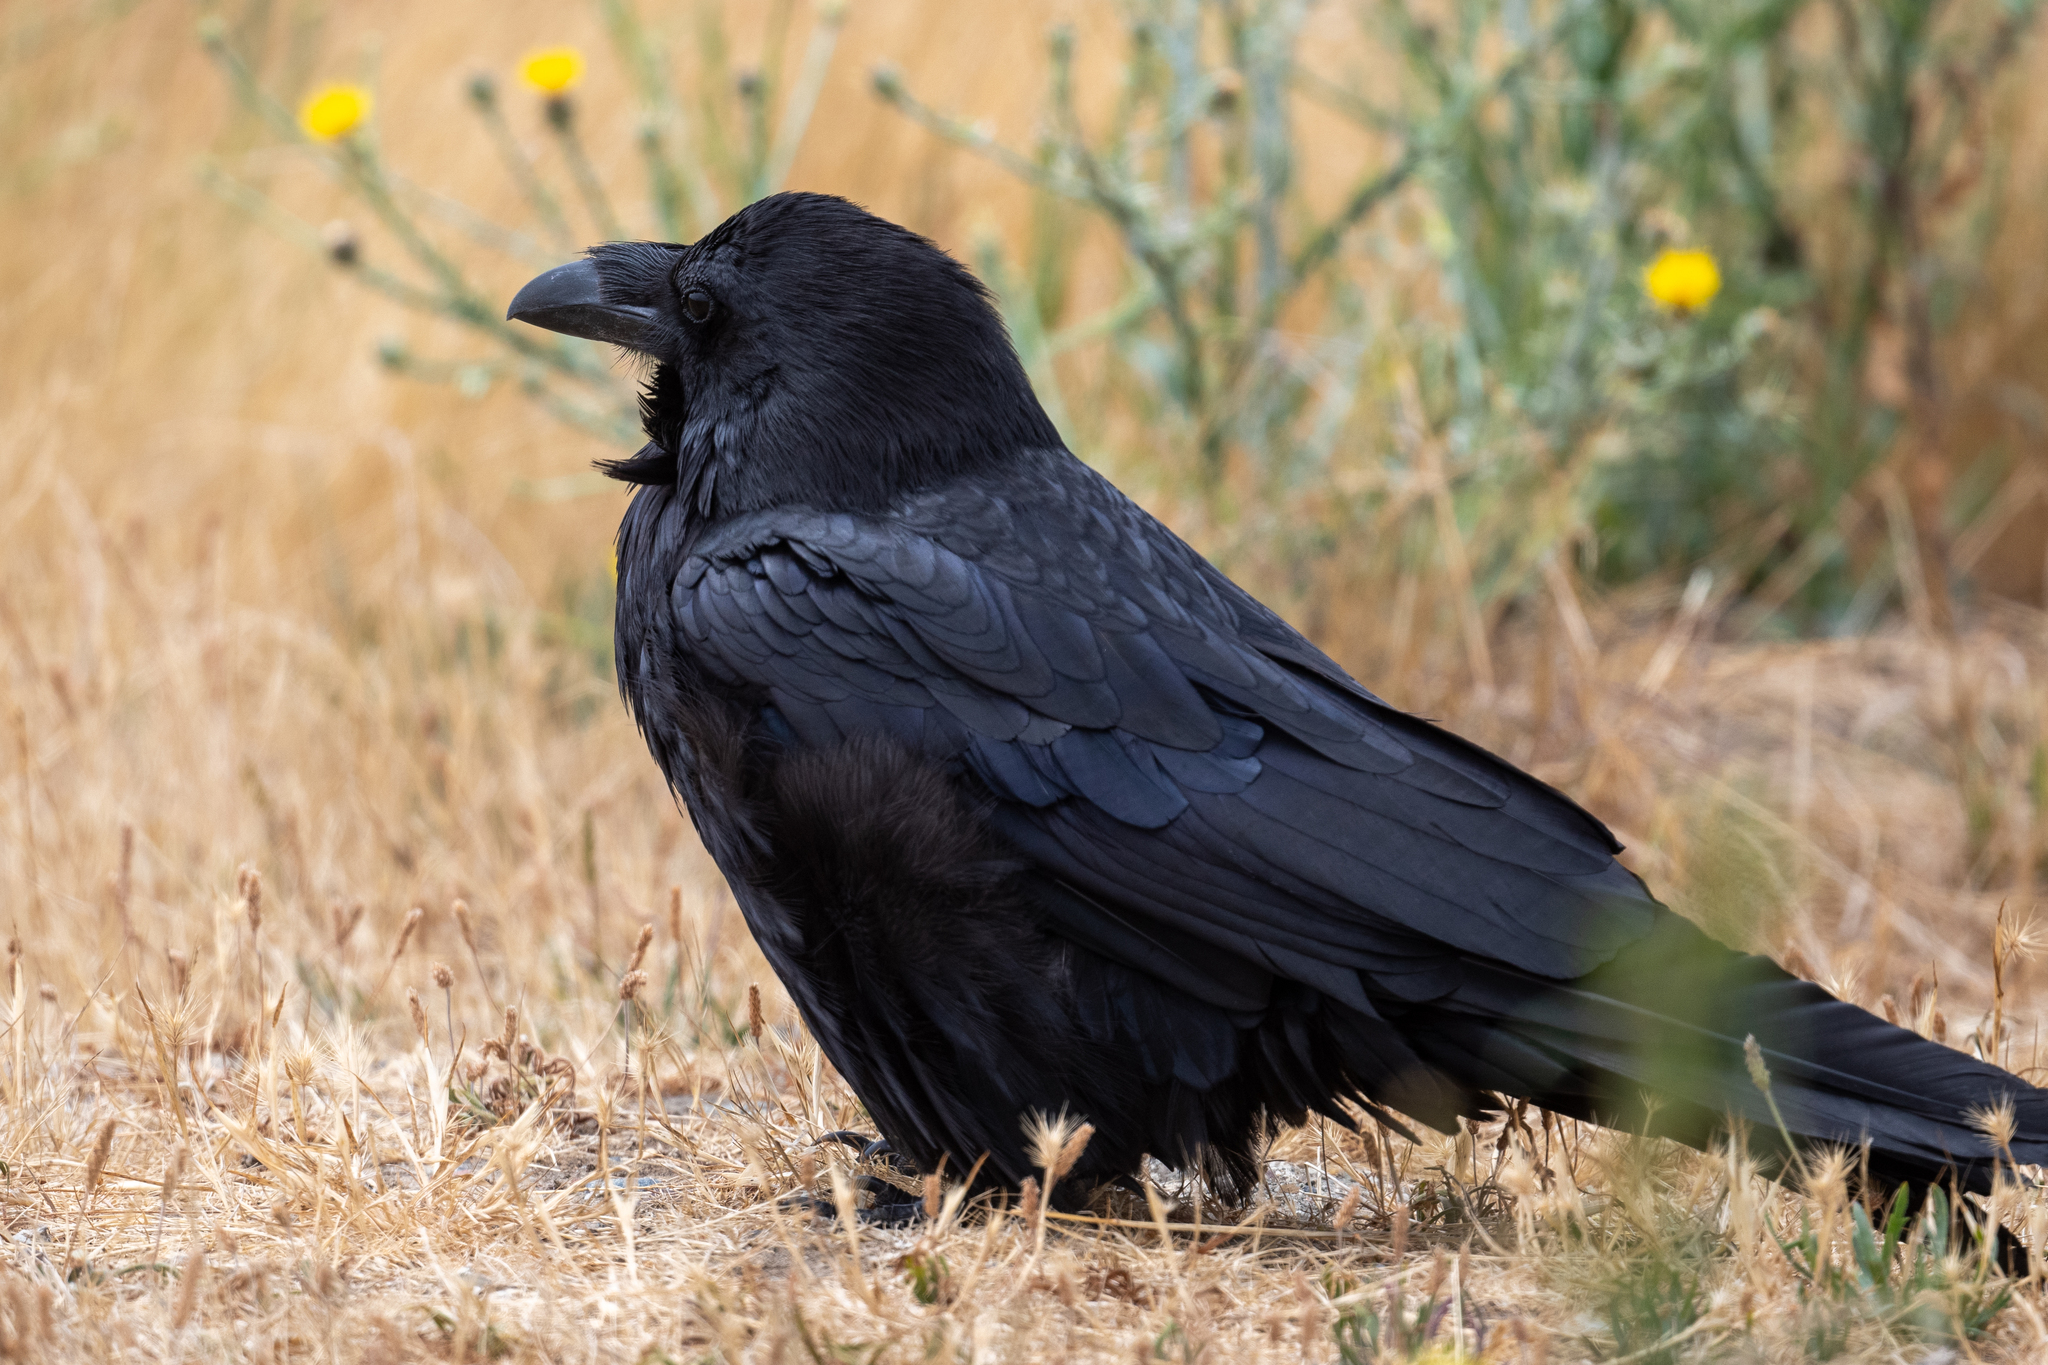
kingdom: Animalia
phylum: Chordata
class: Aves
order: Passeriformes
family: Corvidae
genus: Corvus
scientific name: Corvus corax
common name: Common raven
